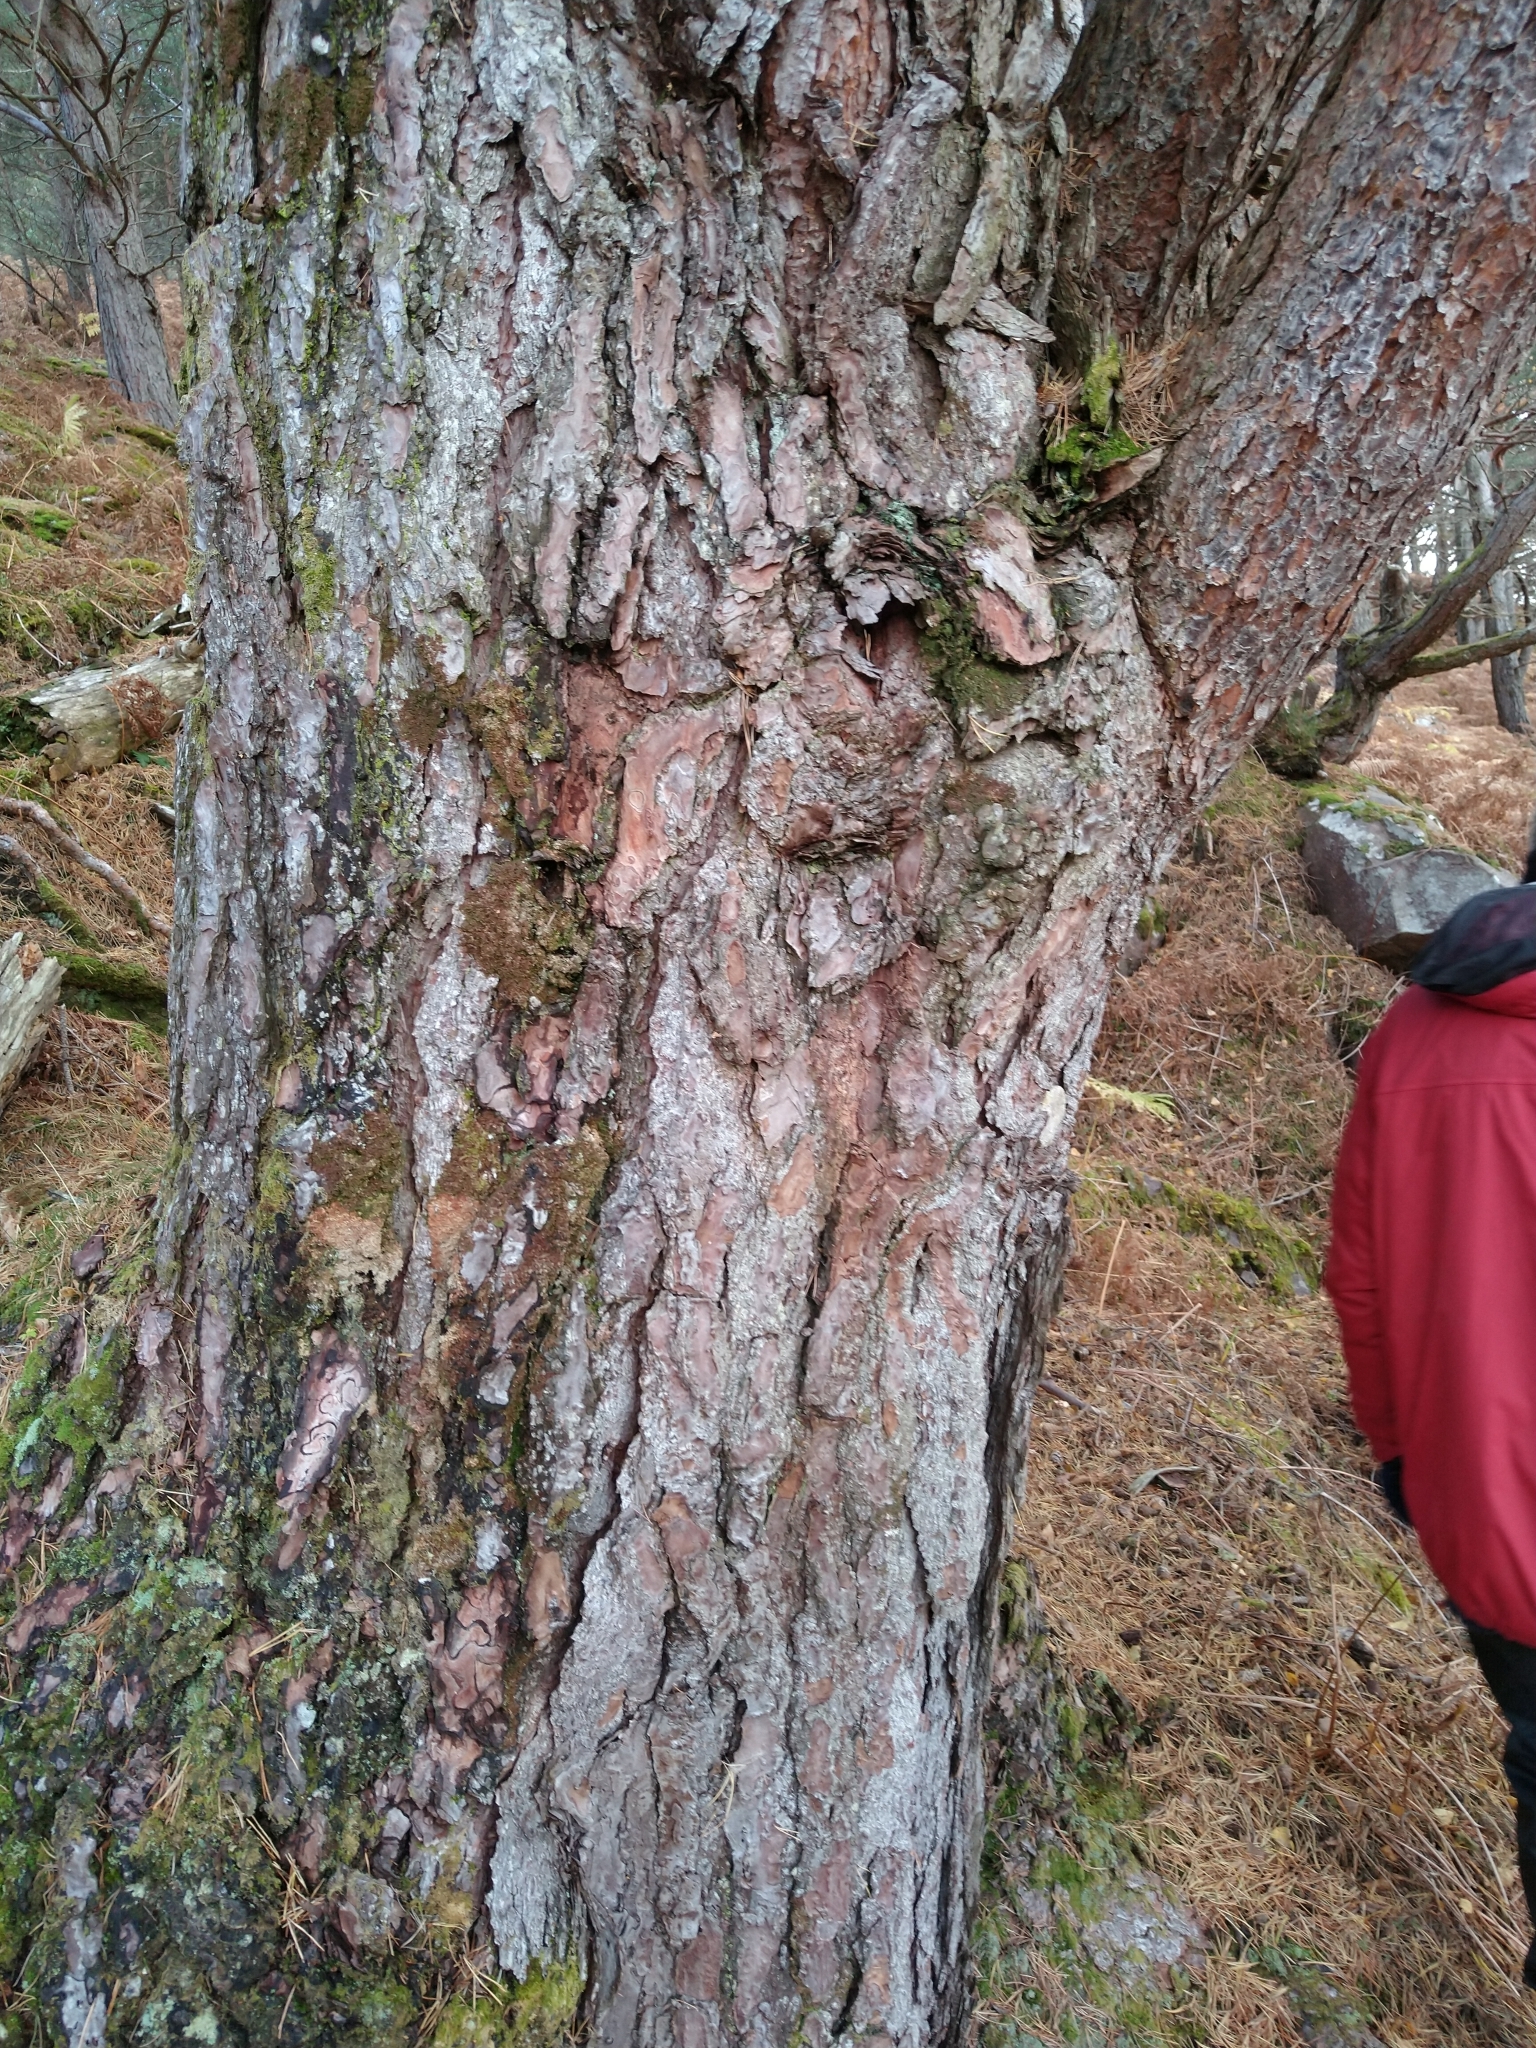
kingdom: Plantae
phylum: Tracheophyta
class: Pinopsida
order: Pinales
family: Pinaceae
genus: Pinus
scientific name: Pinus sylvestris
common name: Scots pine
